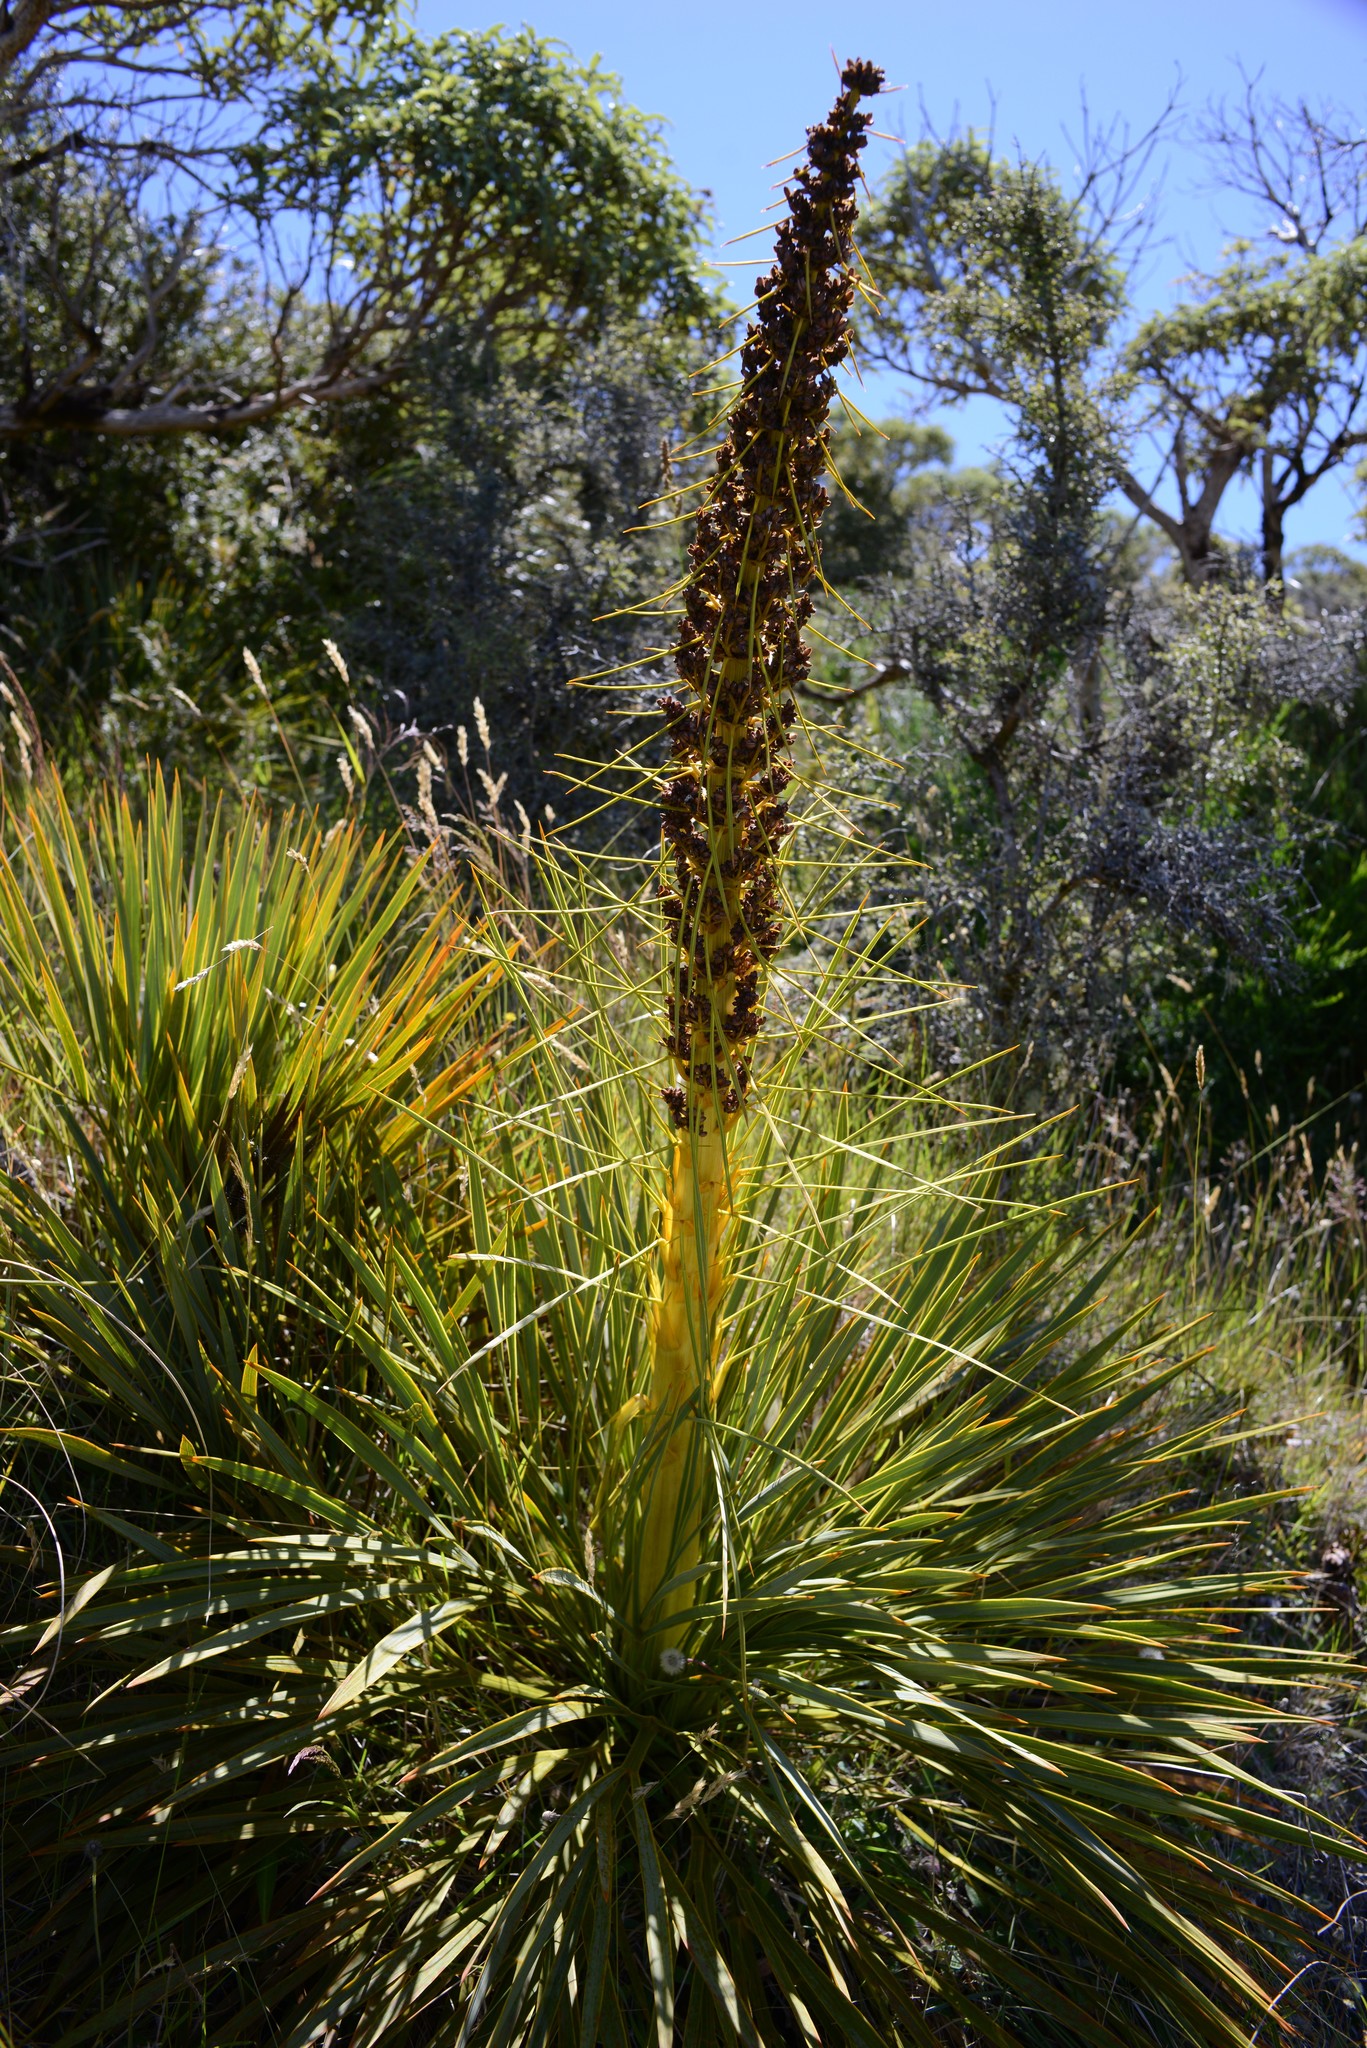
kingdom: Plantae
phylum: Tracheophyta
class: Magnoliopsida
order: Apiales
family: Apiaceae
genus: Aciphylla
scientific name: Aciphylla aurea
